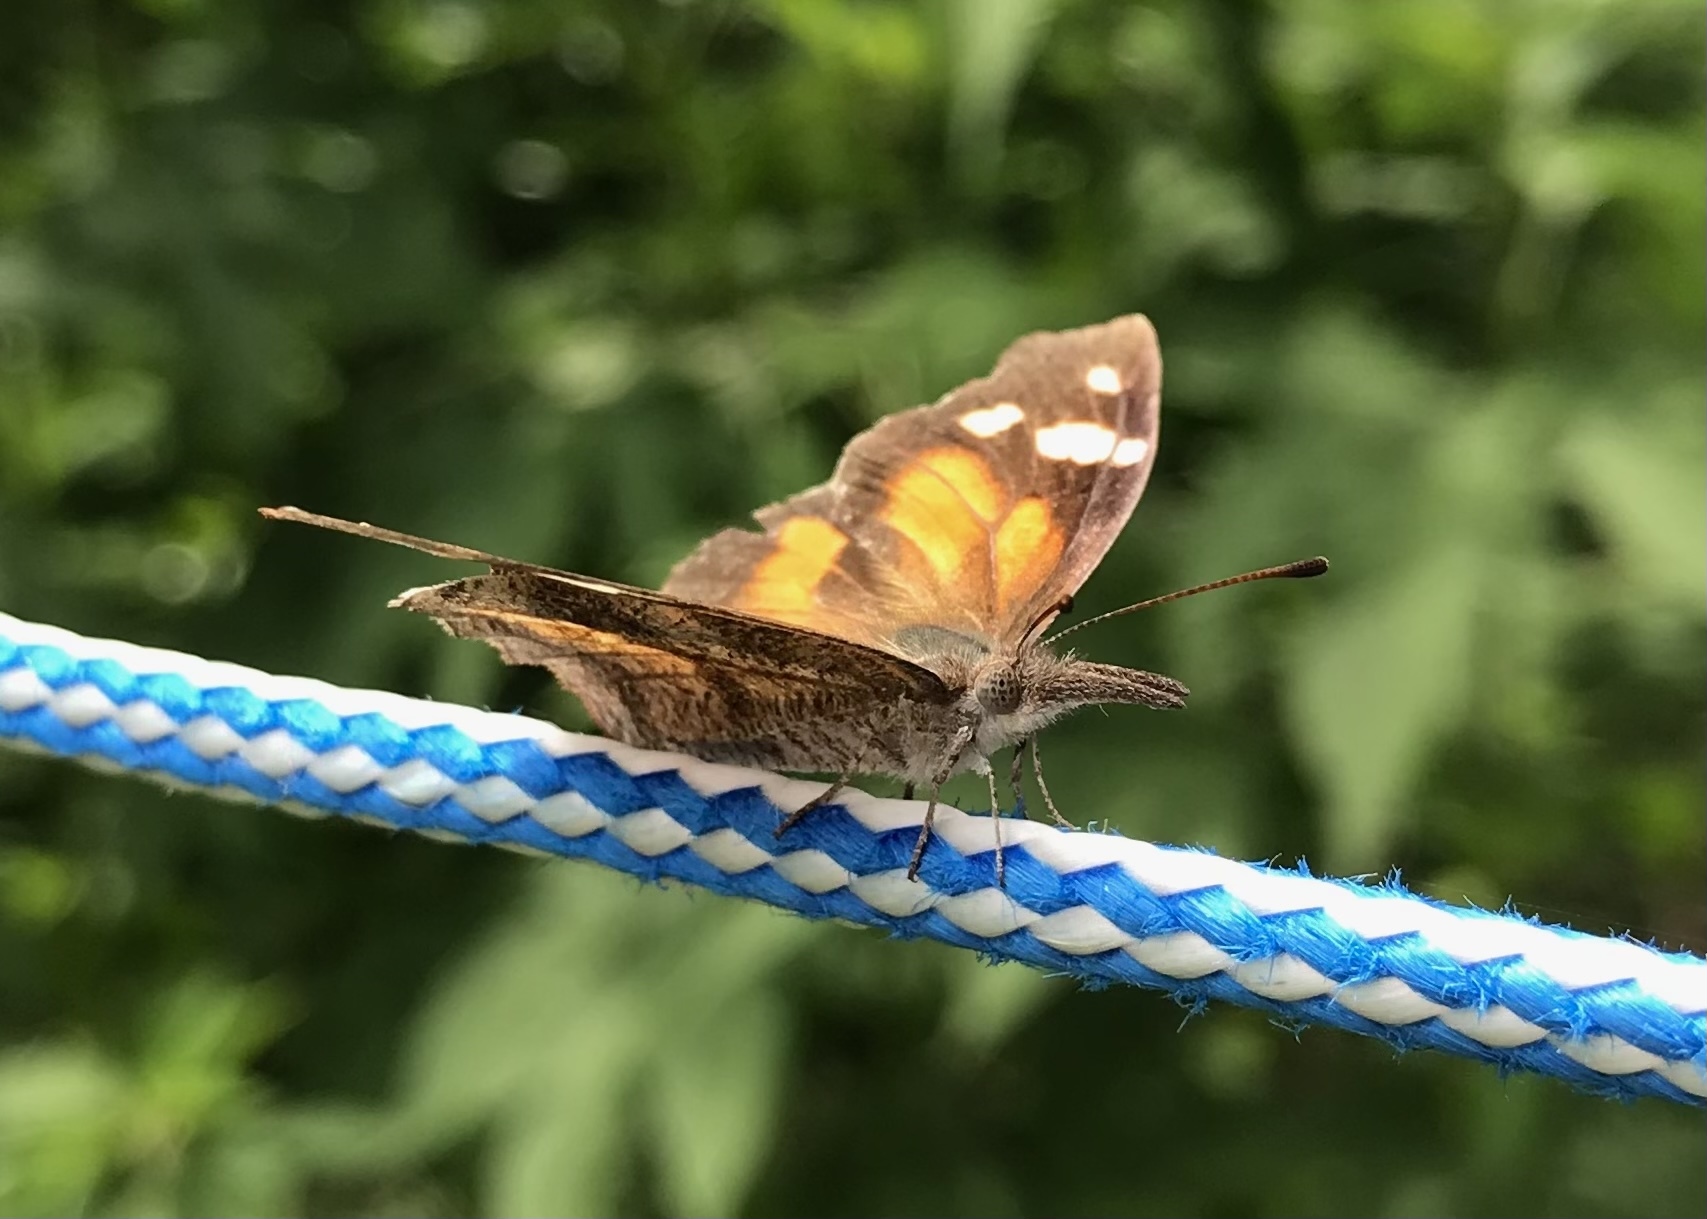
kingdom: Animalia
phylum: Arthropoda
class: Insecta
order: Lepidoptera
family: Nymphalidae
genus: Libytheana
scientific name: Libytheana carinenta
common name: American snout
